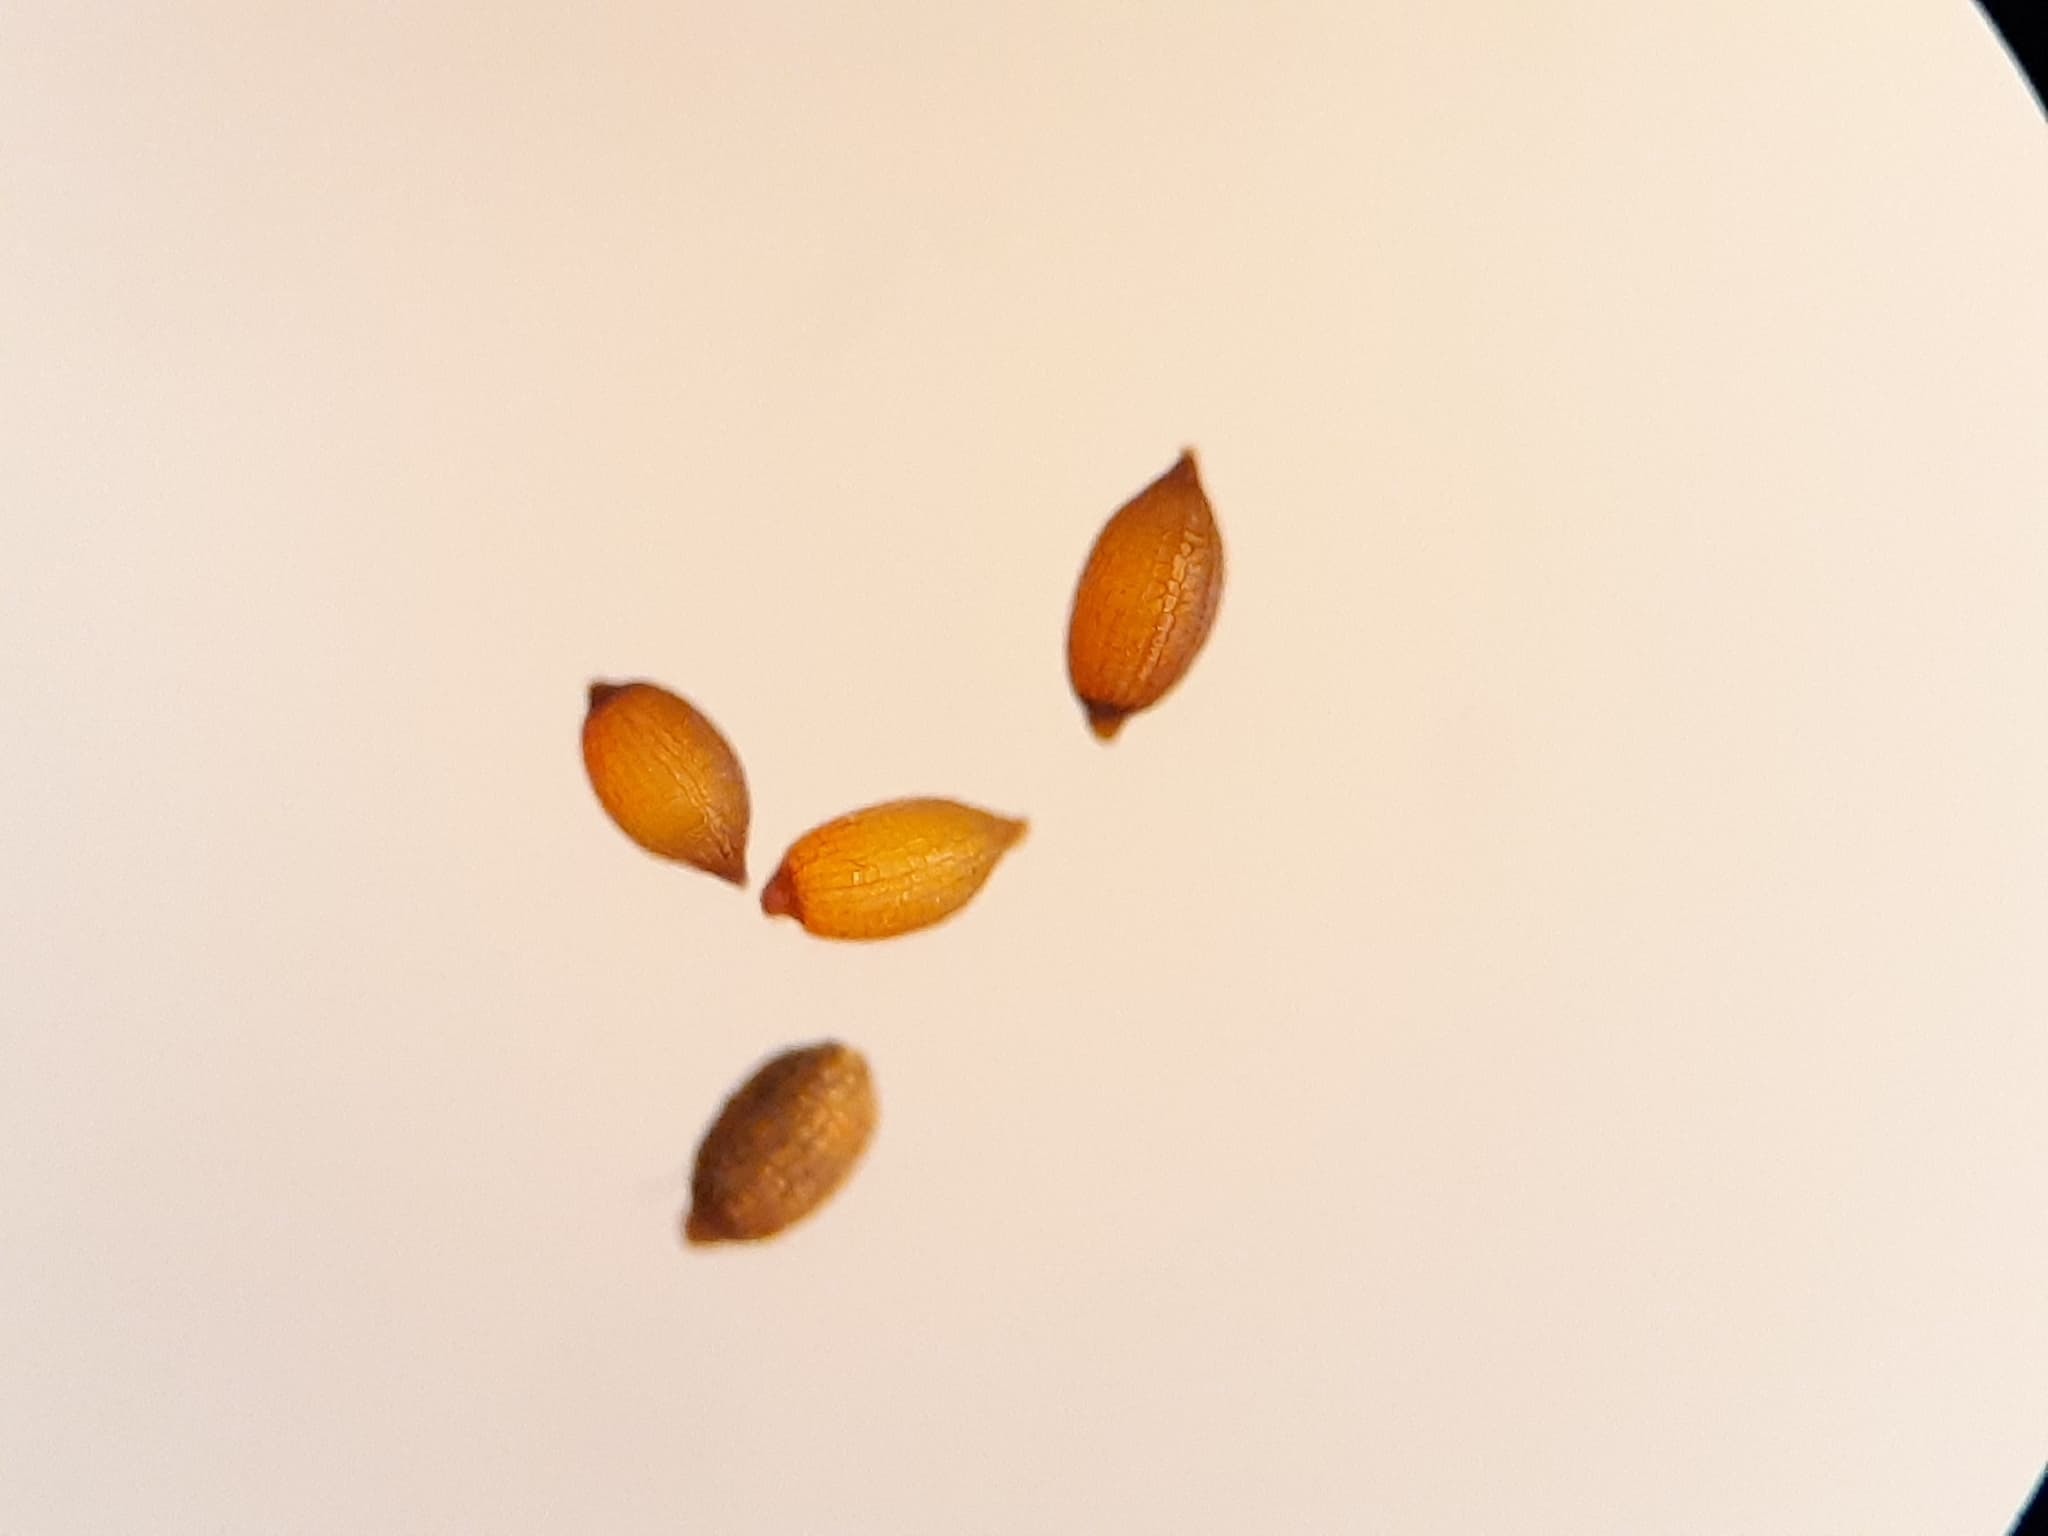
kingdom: Plantae
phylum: Tracheophyta
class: Liliopsida
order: Poales
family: Juncaceae
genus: Juncus
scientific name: Juncus nodosus
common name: Knotted rush
